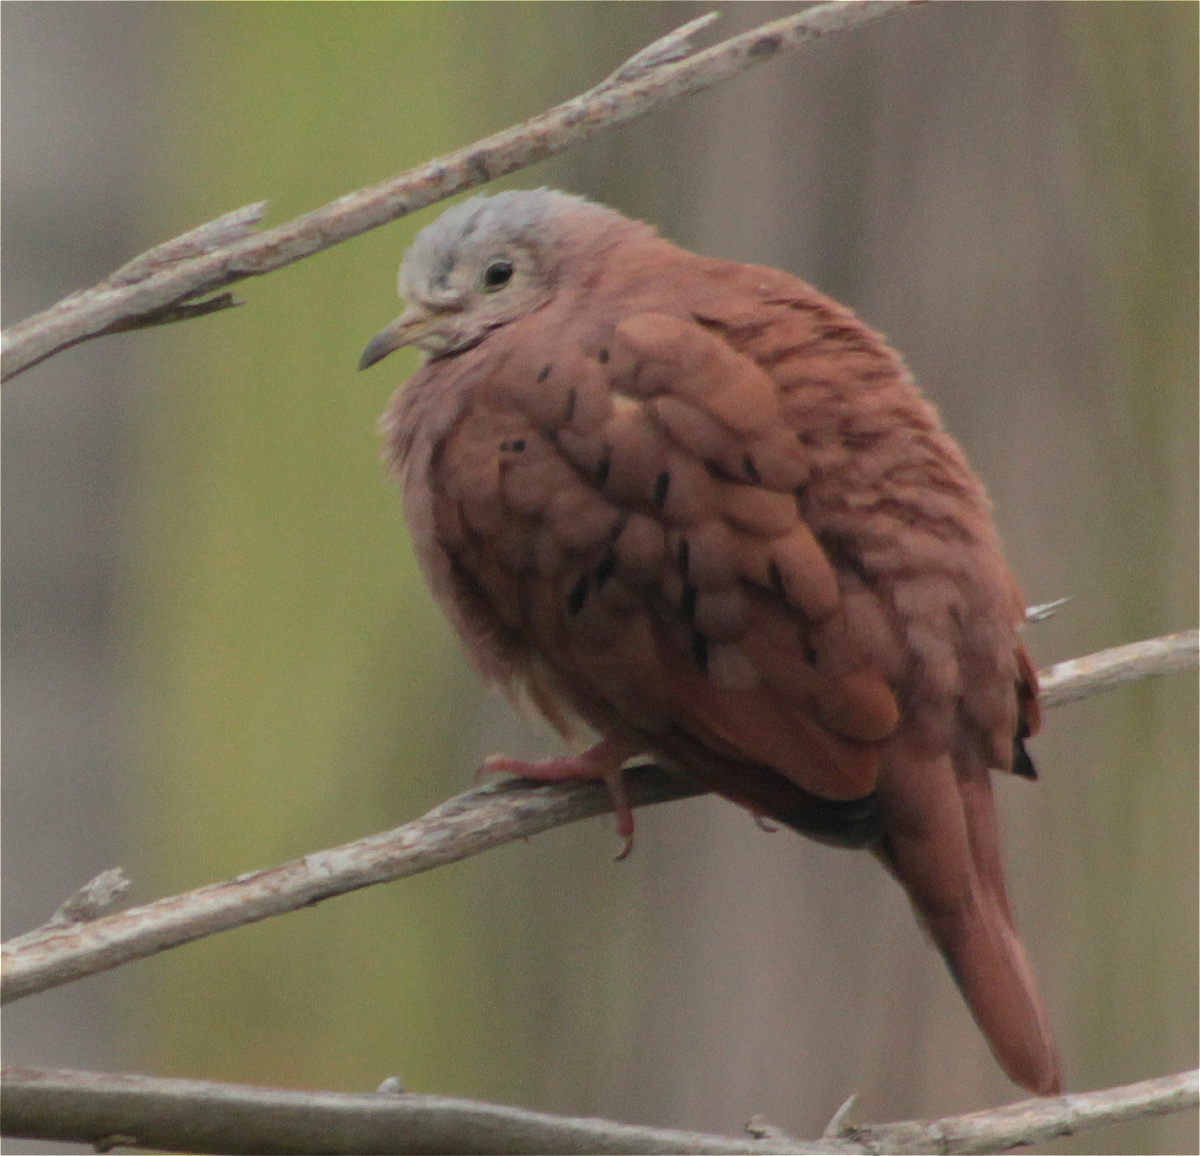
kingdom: Animalia
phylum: Chordata
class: Aves
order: Columbiformes
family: Columbidae
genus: Columbina
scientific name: Columbina talpacoti
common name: Ruddy ground dove
